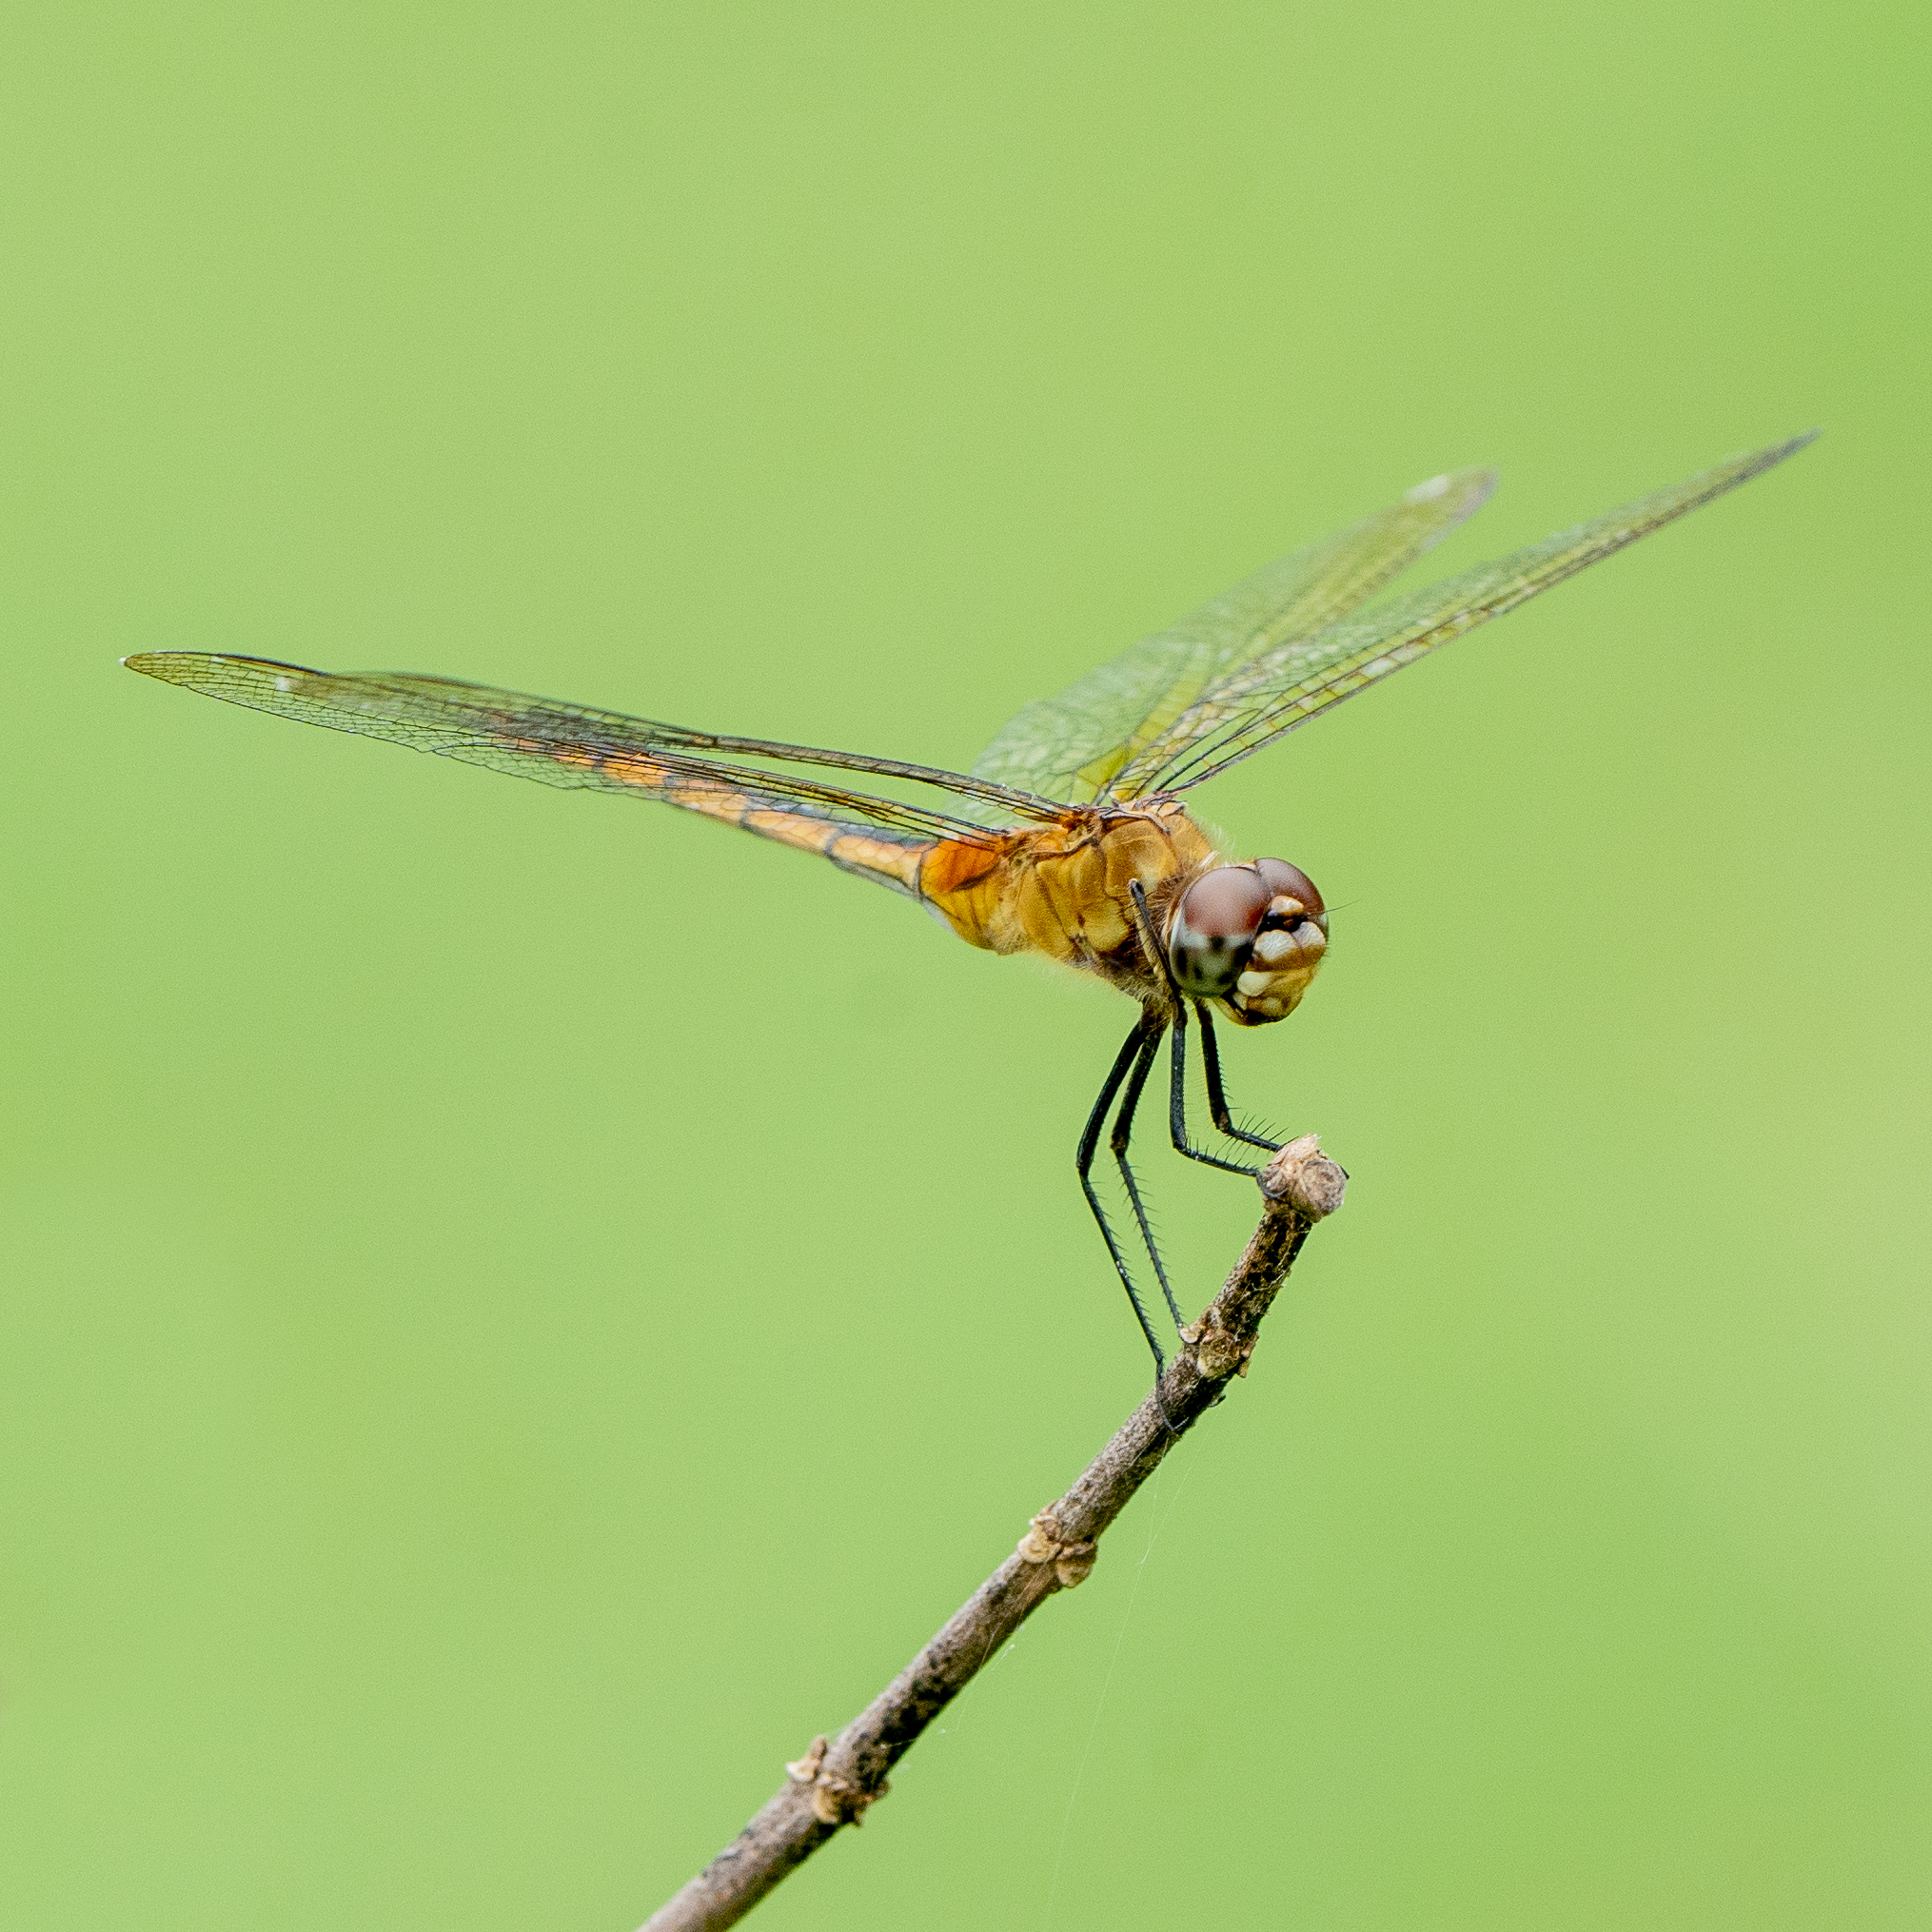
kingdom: Animalia
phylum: Arthropoda
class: Insecta
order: Odonata
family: Libellulidae
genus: Brachymesia
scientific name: Brachymesia herbida
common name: Tawny pennant
